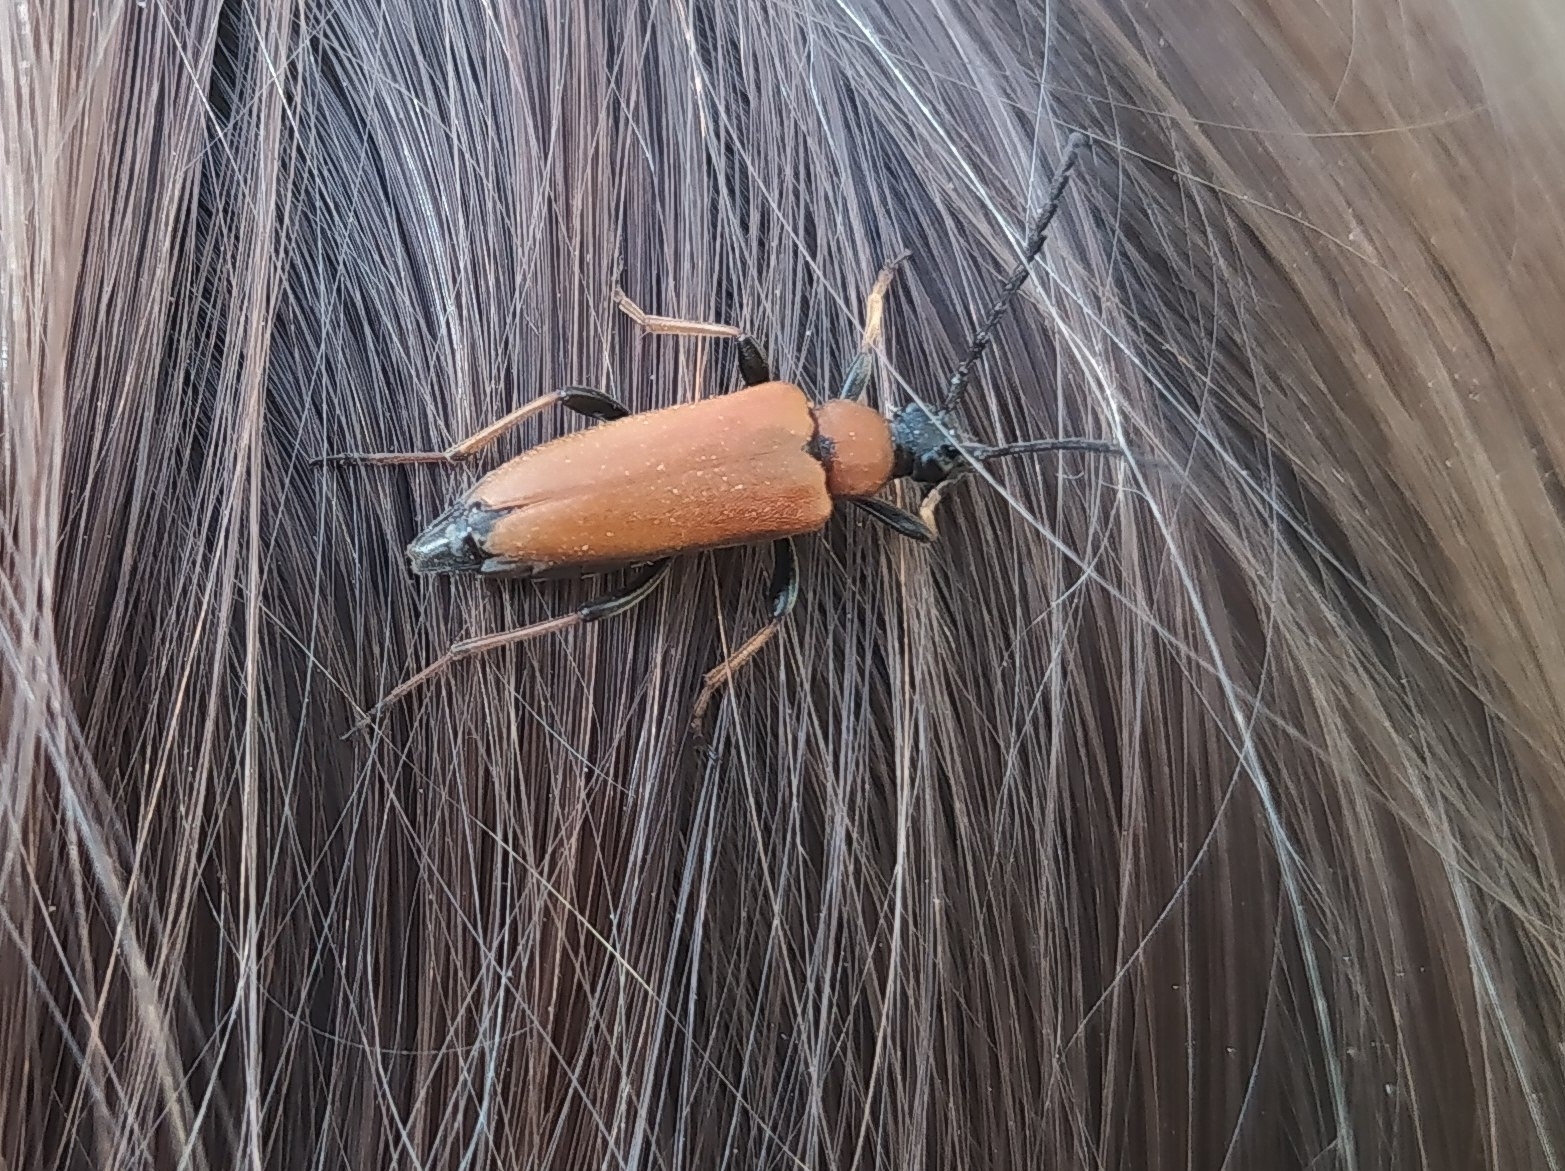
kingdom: Animalia
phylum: Arthropoda
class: Insecta
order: Coleoptera
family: Cerambycidae
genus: Stictoleptura
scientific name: Stictoleptura rubra
